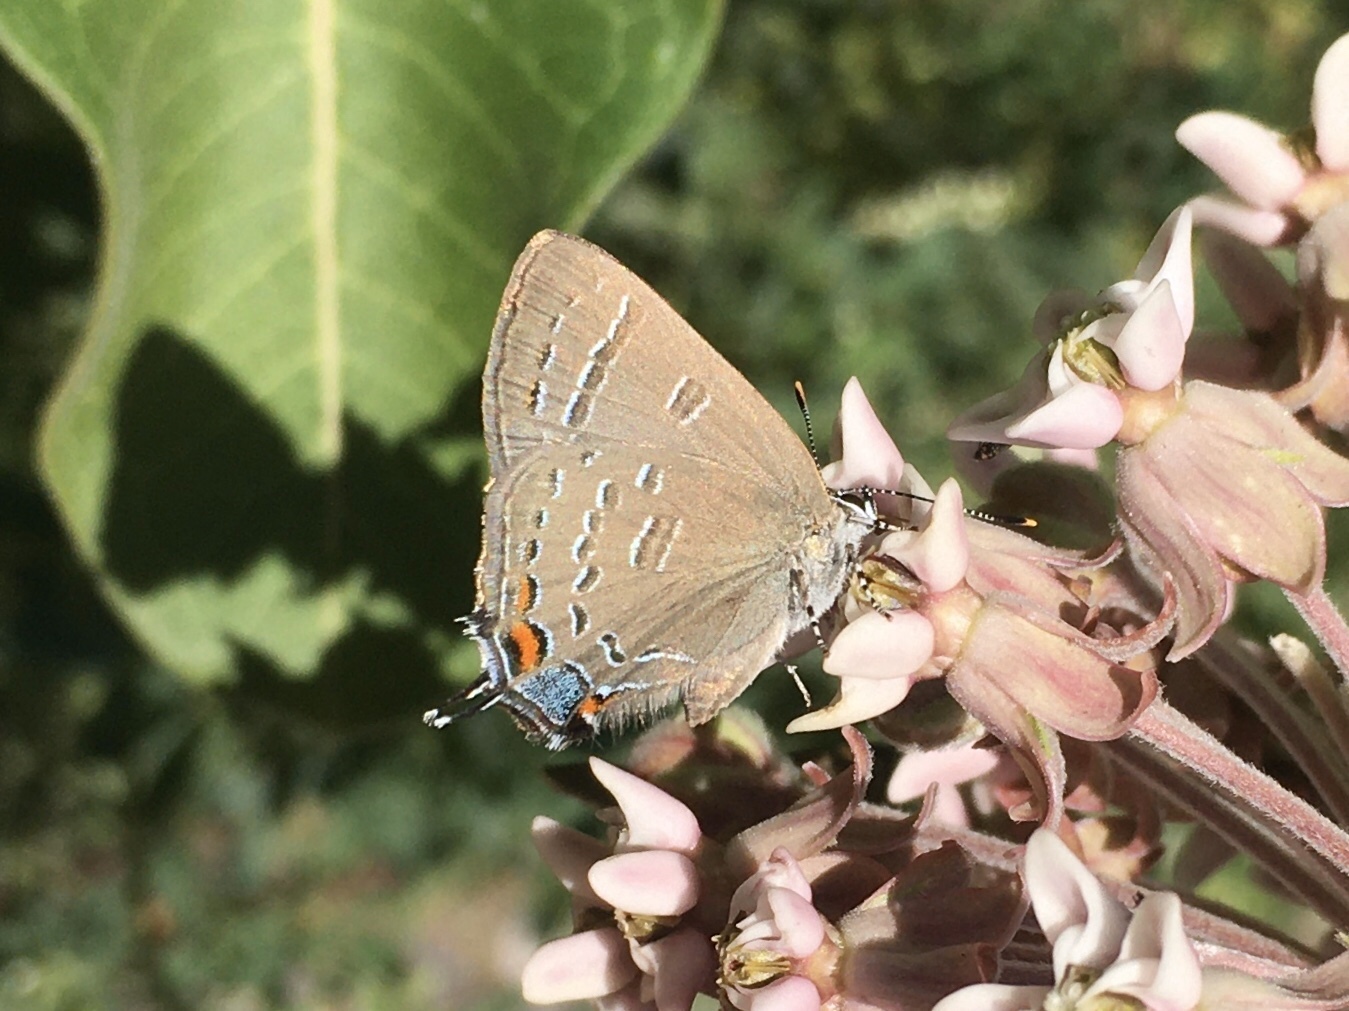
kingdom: Animalia
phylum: Arthropoda
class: Insecta
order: Lepidoptera
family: Lycaenidae
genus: Satyrium
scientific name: Satyrium calanus
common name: Banded hairstreak
